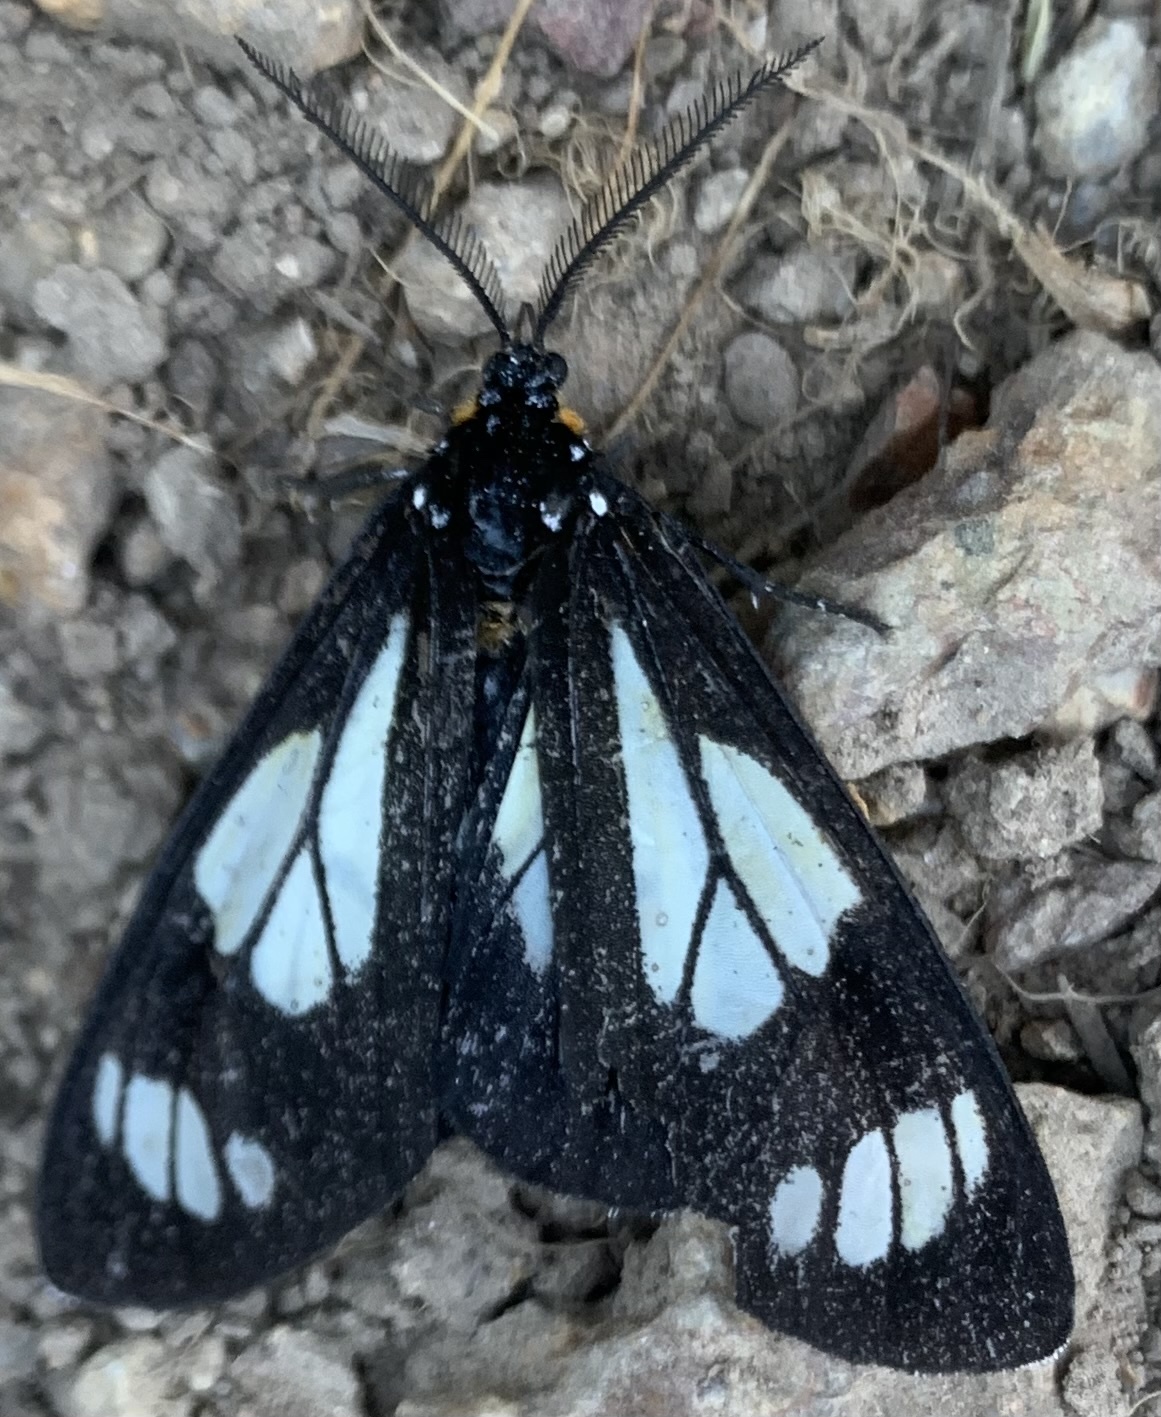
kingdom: Animalia
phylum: Arthropoda
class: Insecta
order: Lepidoptera
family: Erebidae
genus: Gnophaela
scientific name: Gnophaela vermiculata
